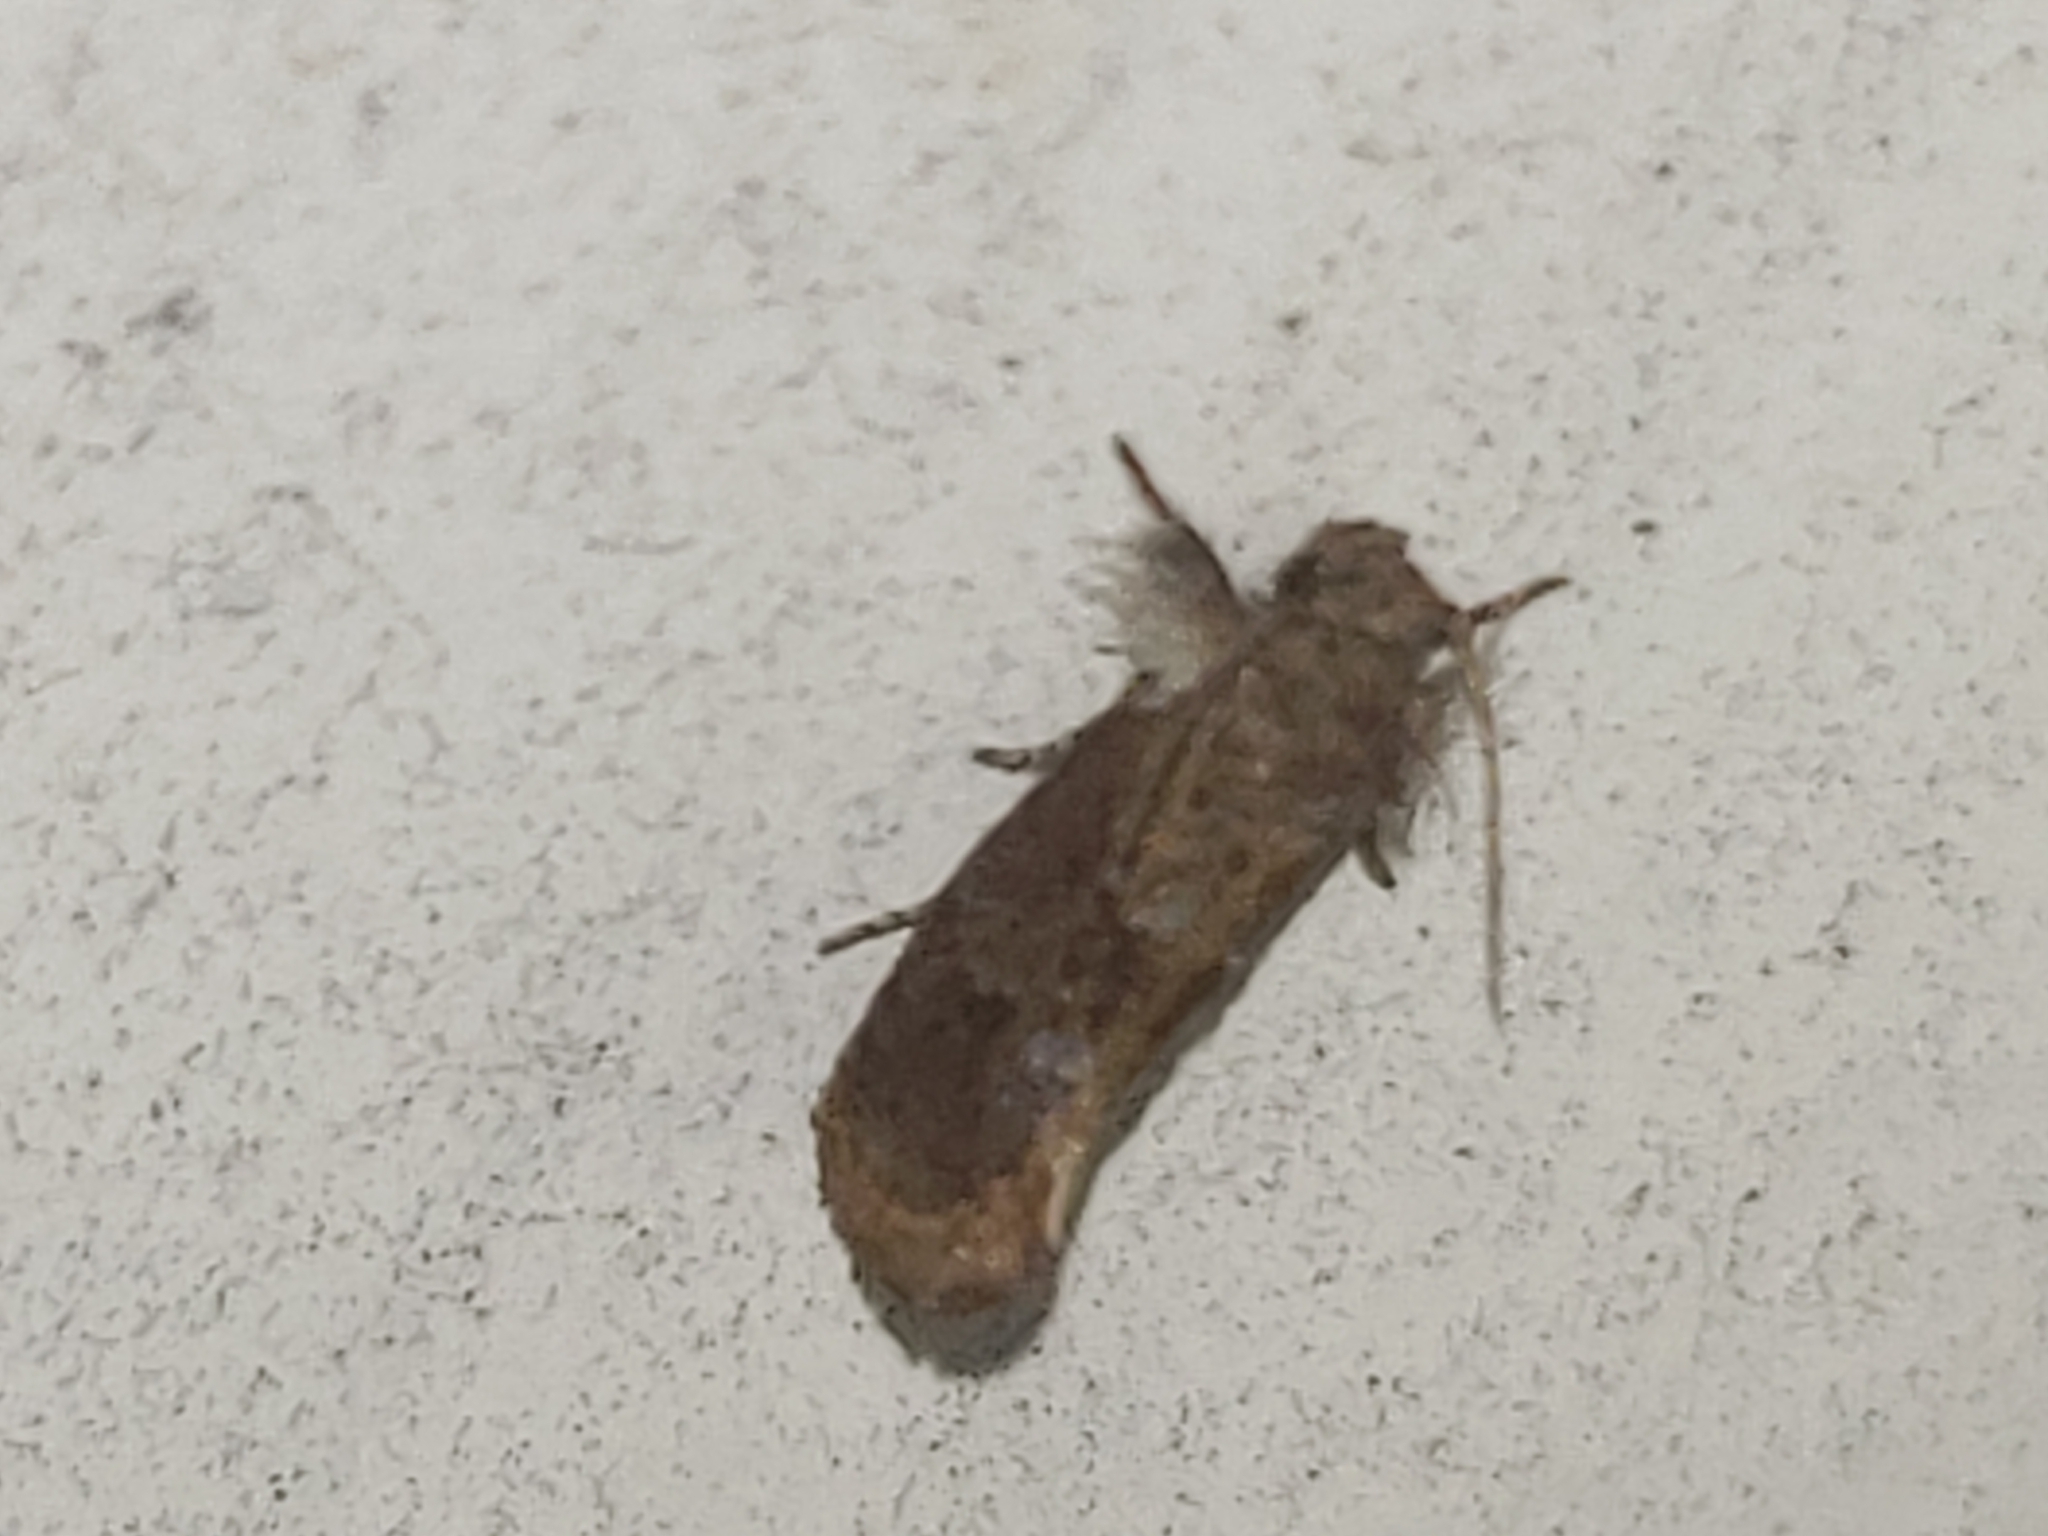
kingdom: Animalia
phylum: Arthropoda
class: Insecta
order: Lepidoptera
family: Tineidae
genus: Acrolophus
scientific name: Acrolophus panamae
